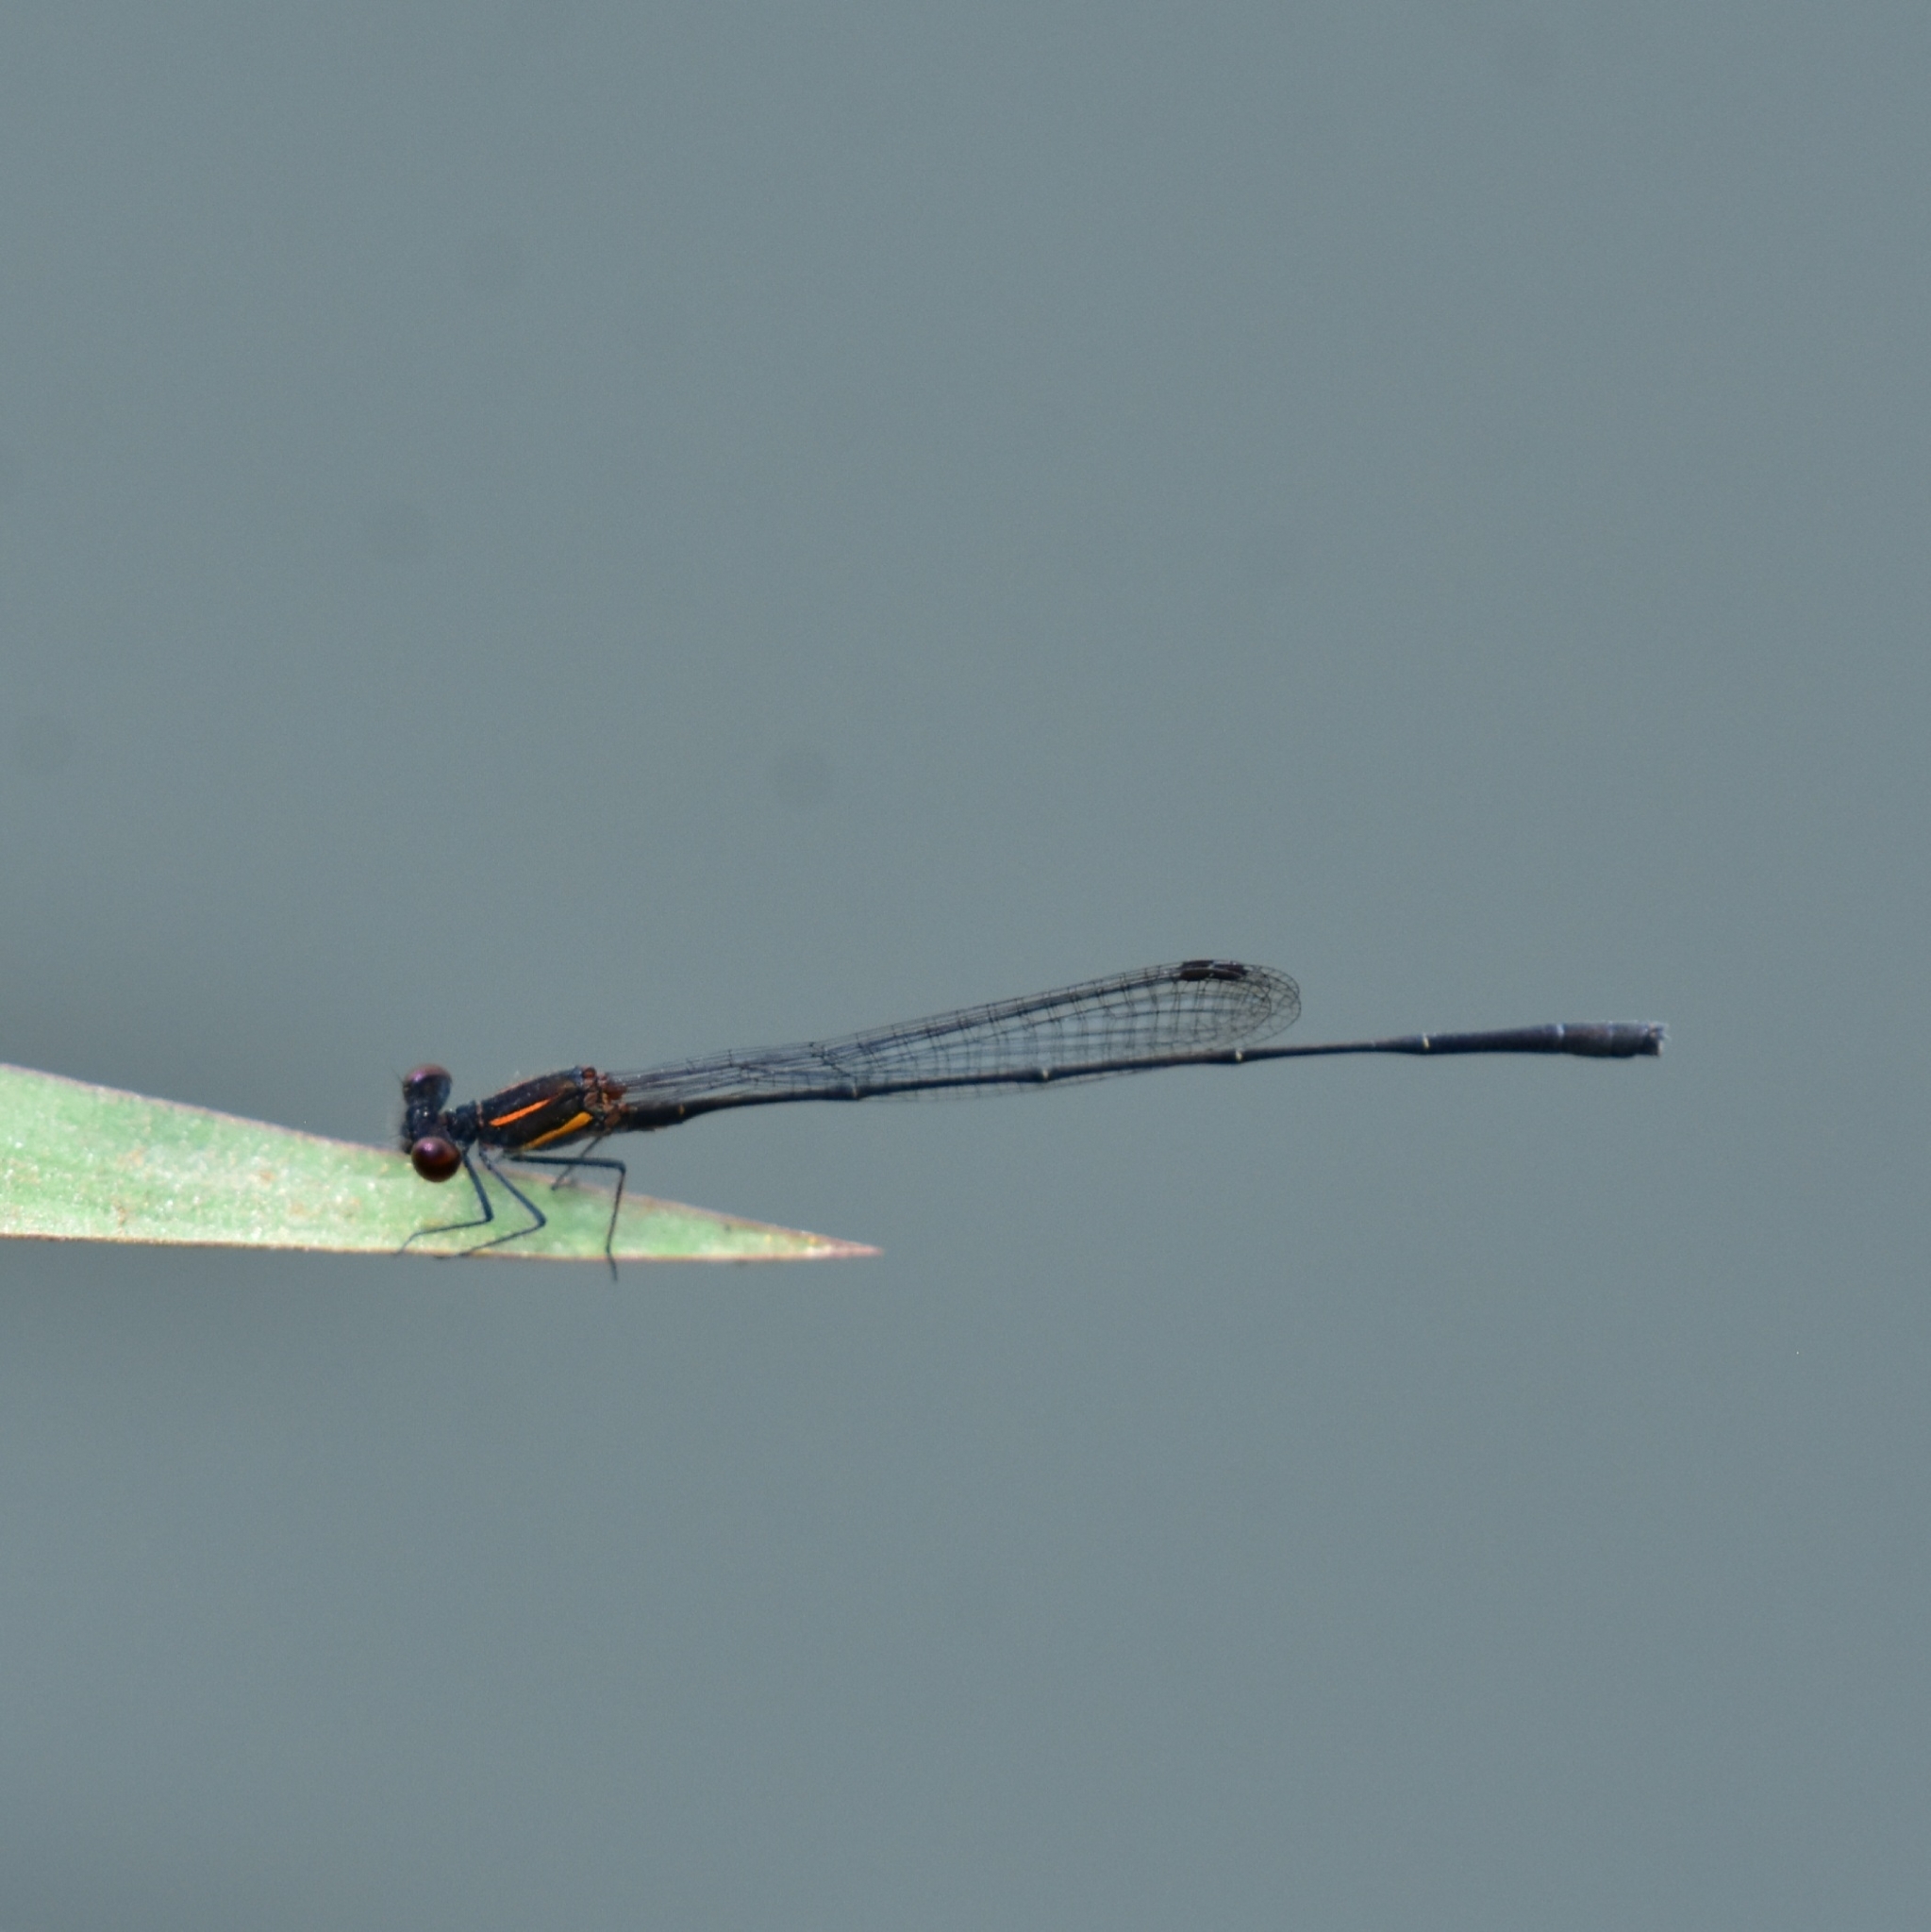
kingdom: Animalia
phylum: Arthropoda
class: Insecta
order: Odonata
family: Platycnemididae
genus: Prodasineura
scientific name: Prodasineura verticalis
